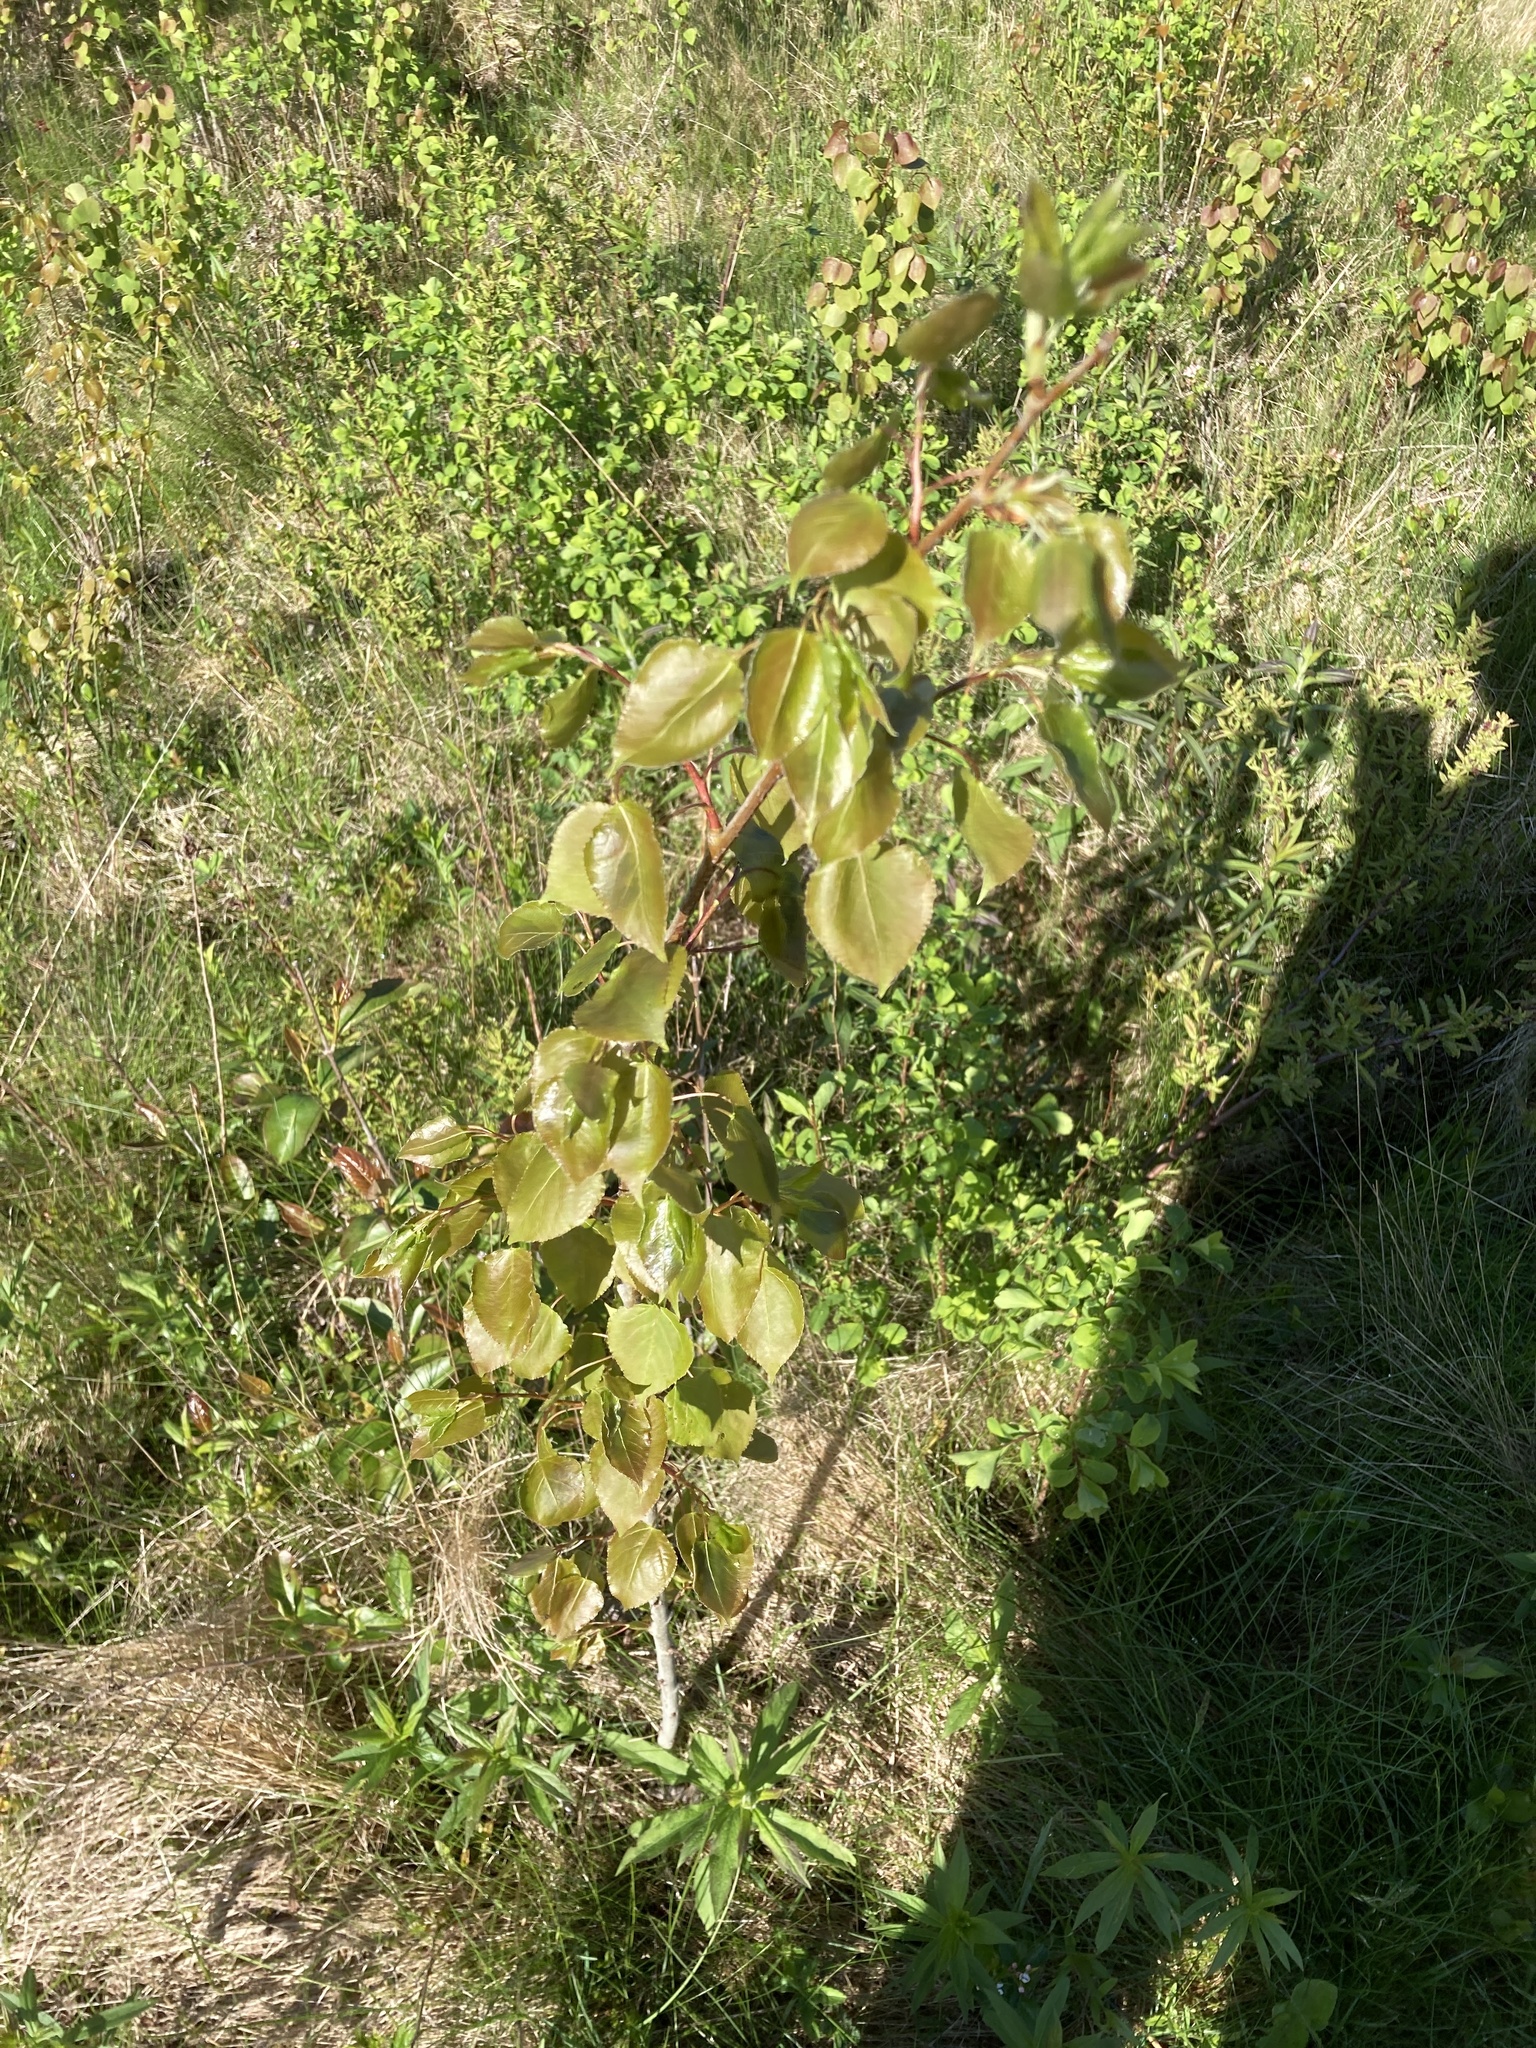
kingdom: Plantae
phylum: Tracheophyta
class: Magnoliopsida
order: Malpighiales
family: Salicaceae
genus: Populus
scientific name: Populus tremuloides
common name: Quaking aspen
